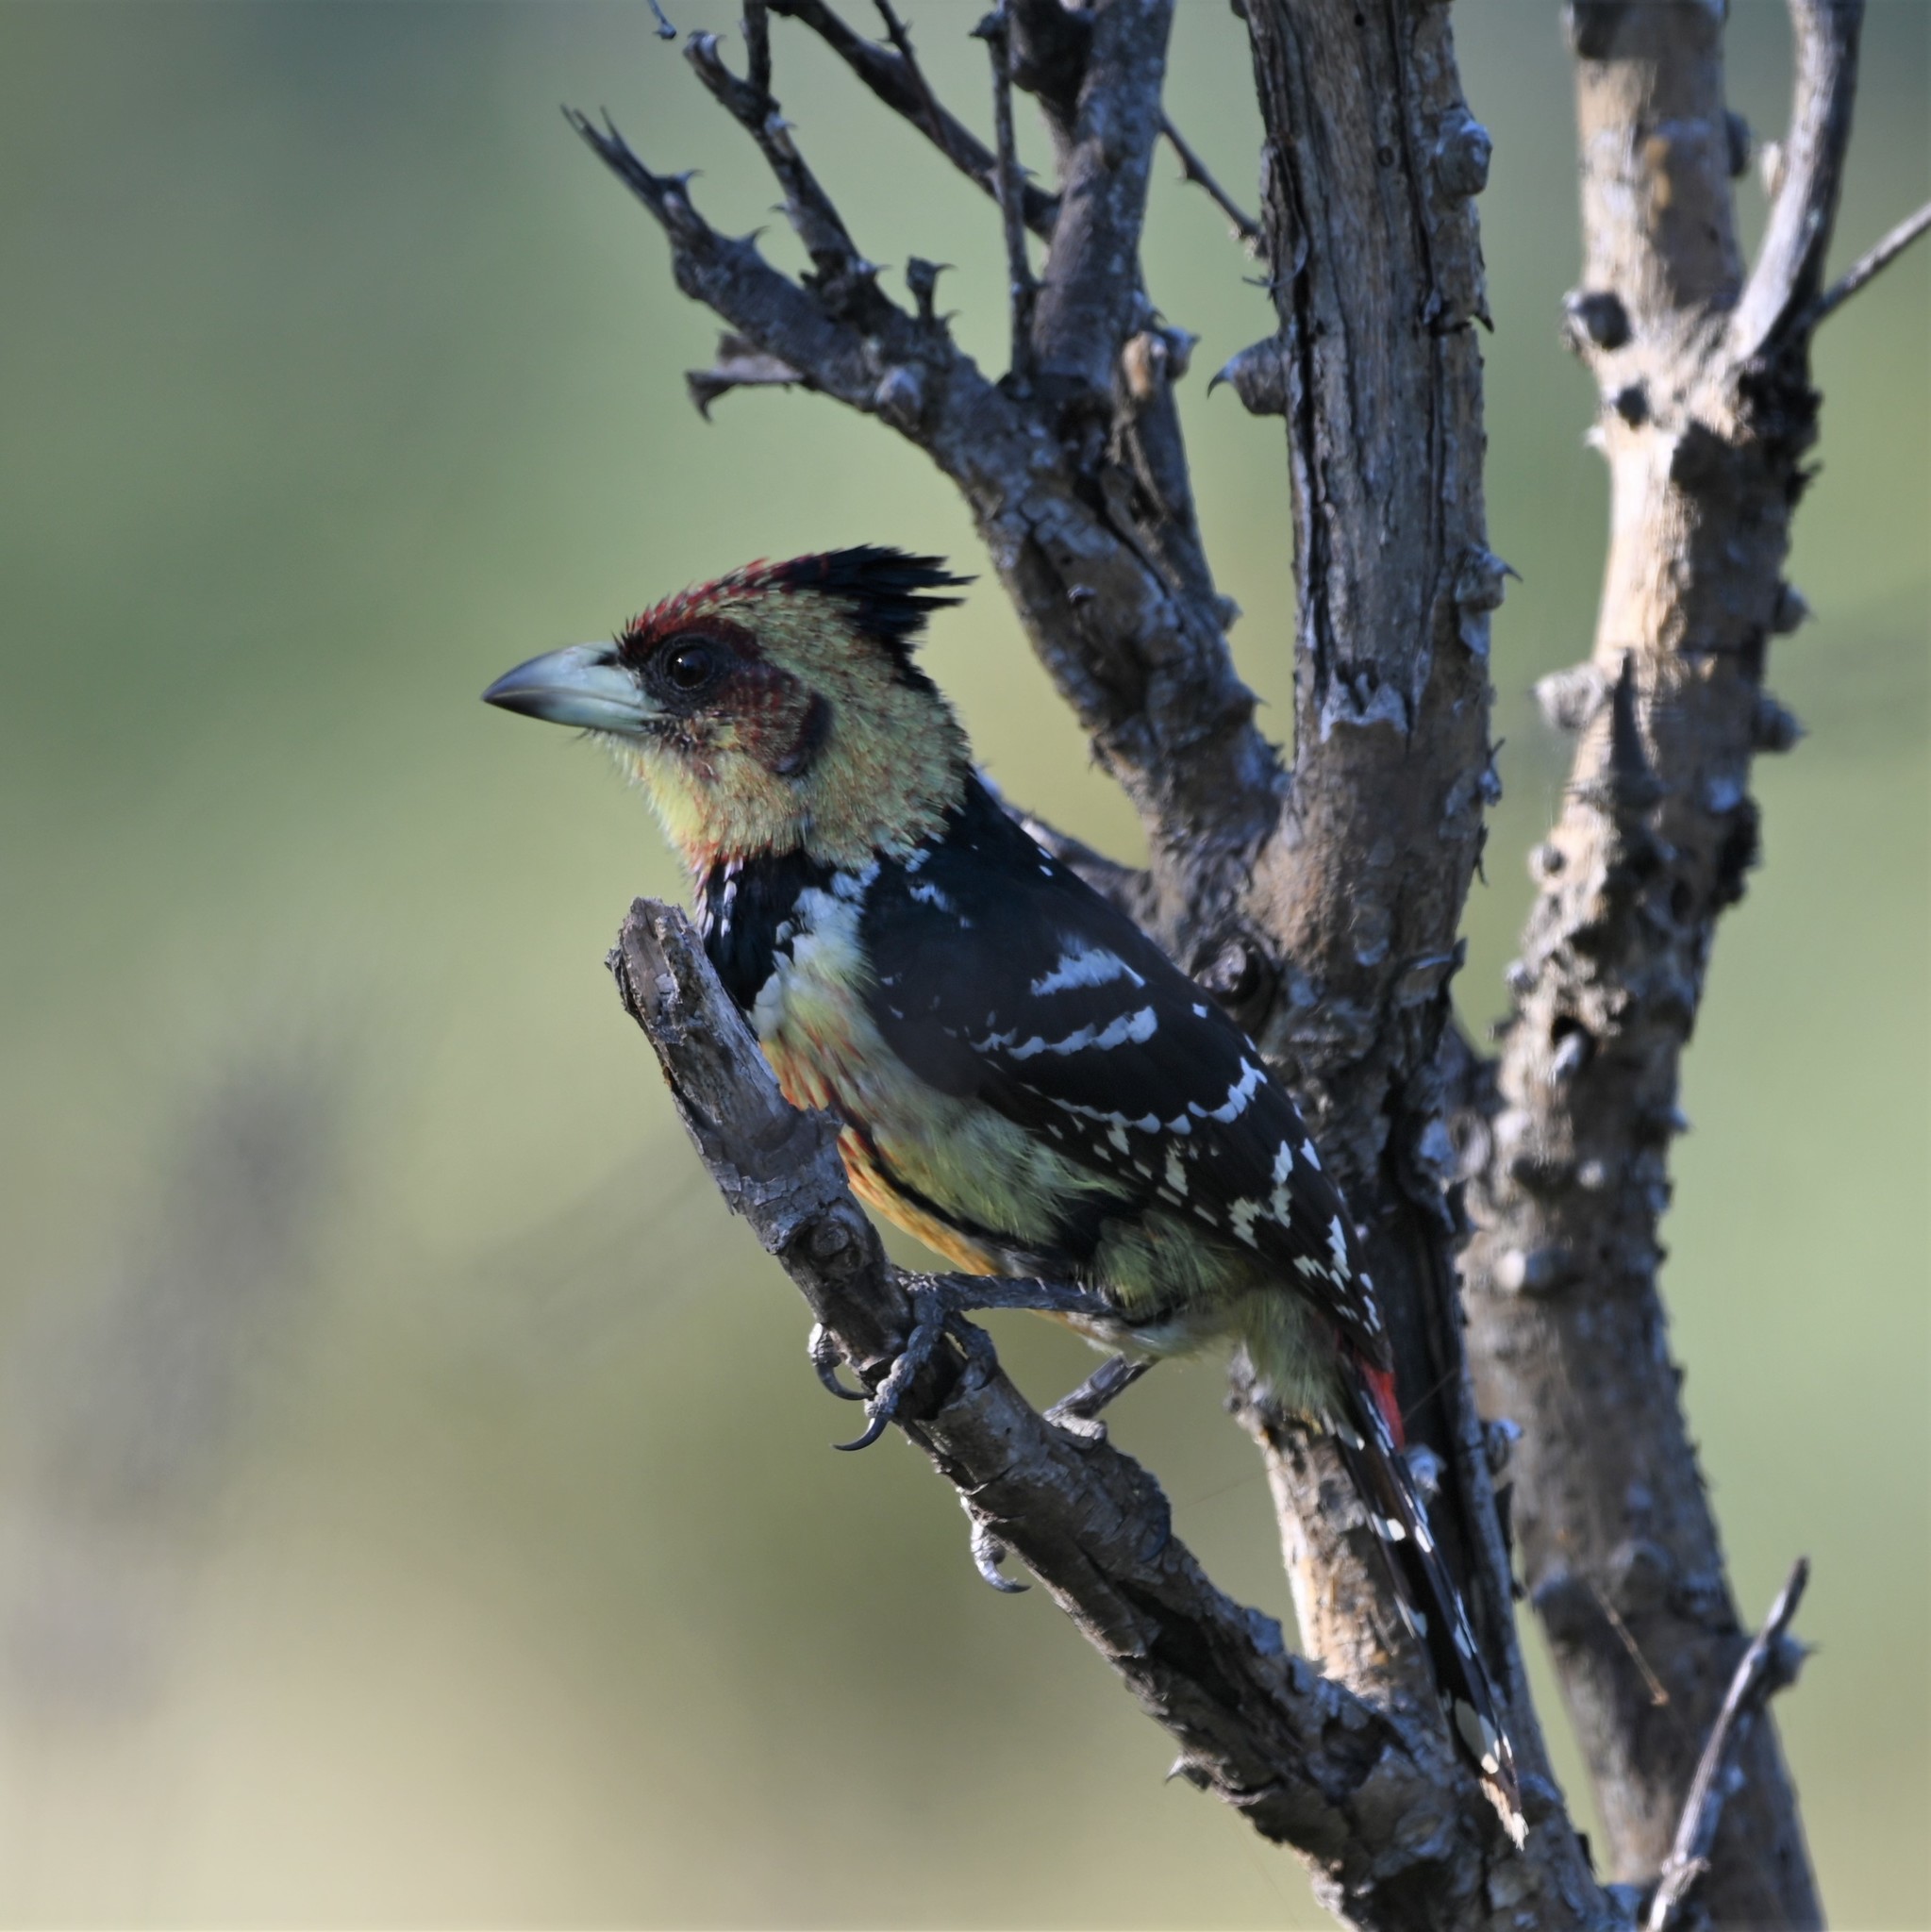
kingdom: Animalia
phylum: Chordata
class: Aves
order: Piciformes
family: Lybiidae
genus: Trachyphonus
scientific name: Trachyphonus vaillantii
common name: Crested barbet
